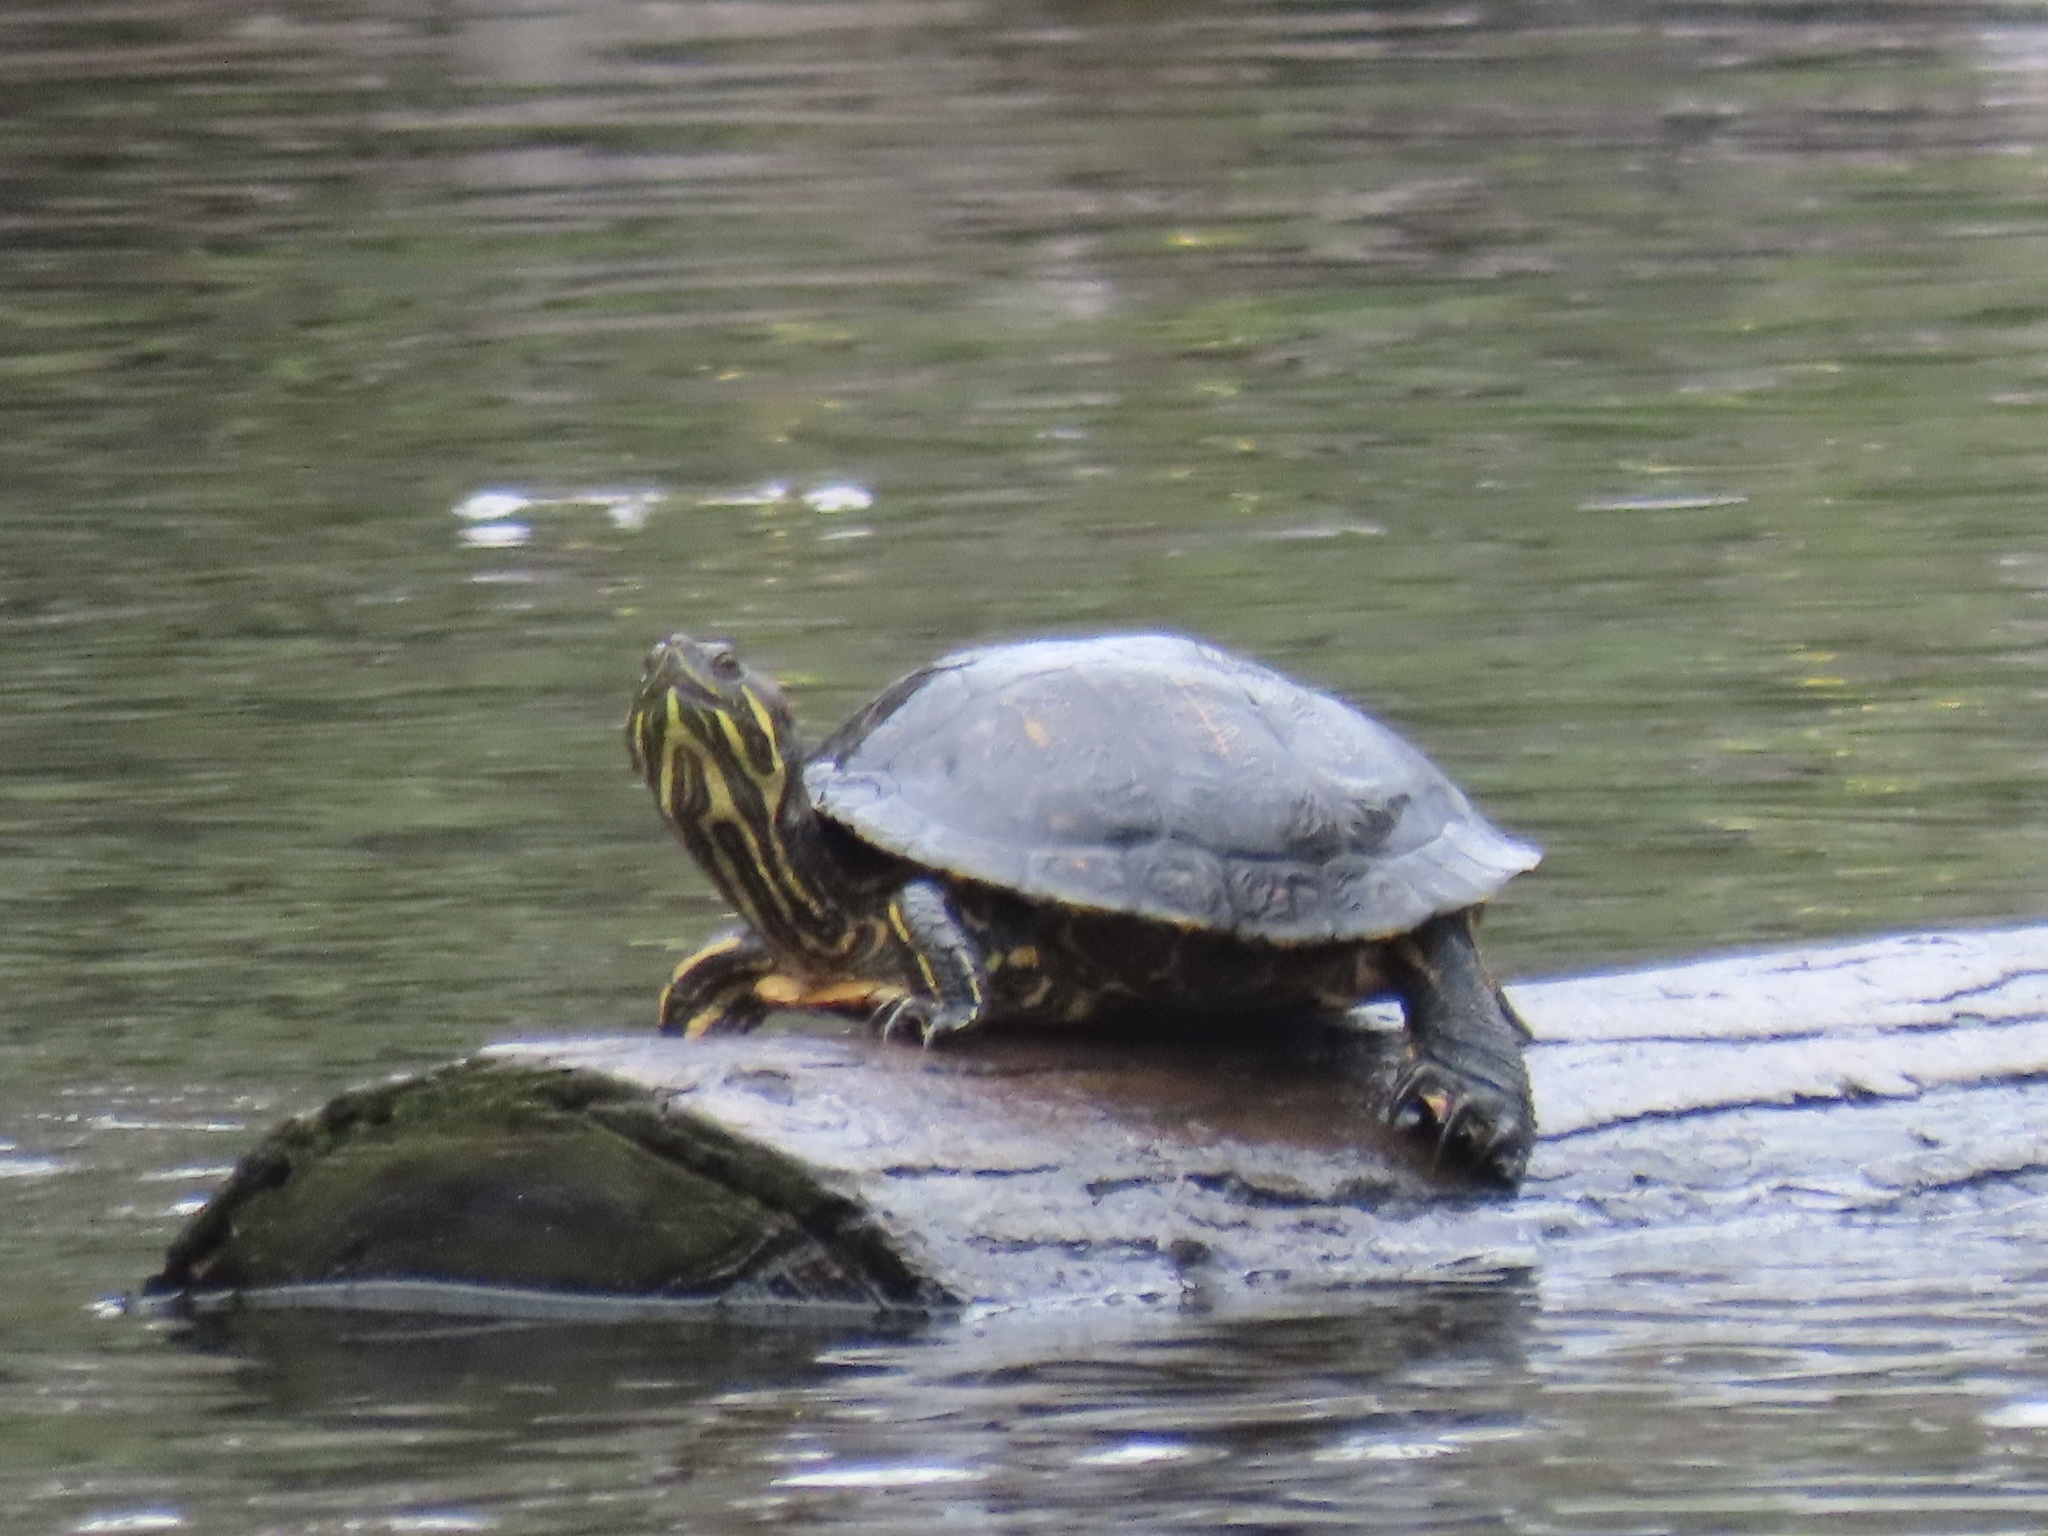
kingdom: Animalia
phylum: Chordata
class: Testudines
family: Emydidae
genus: Trachemys
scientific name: Trachemys scripta
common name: Slider
